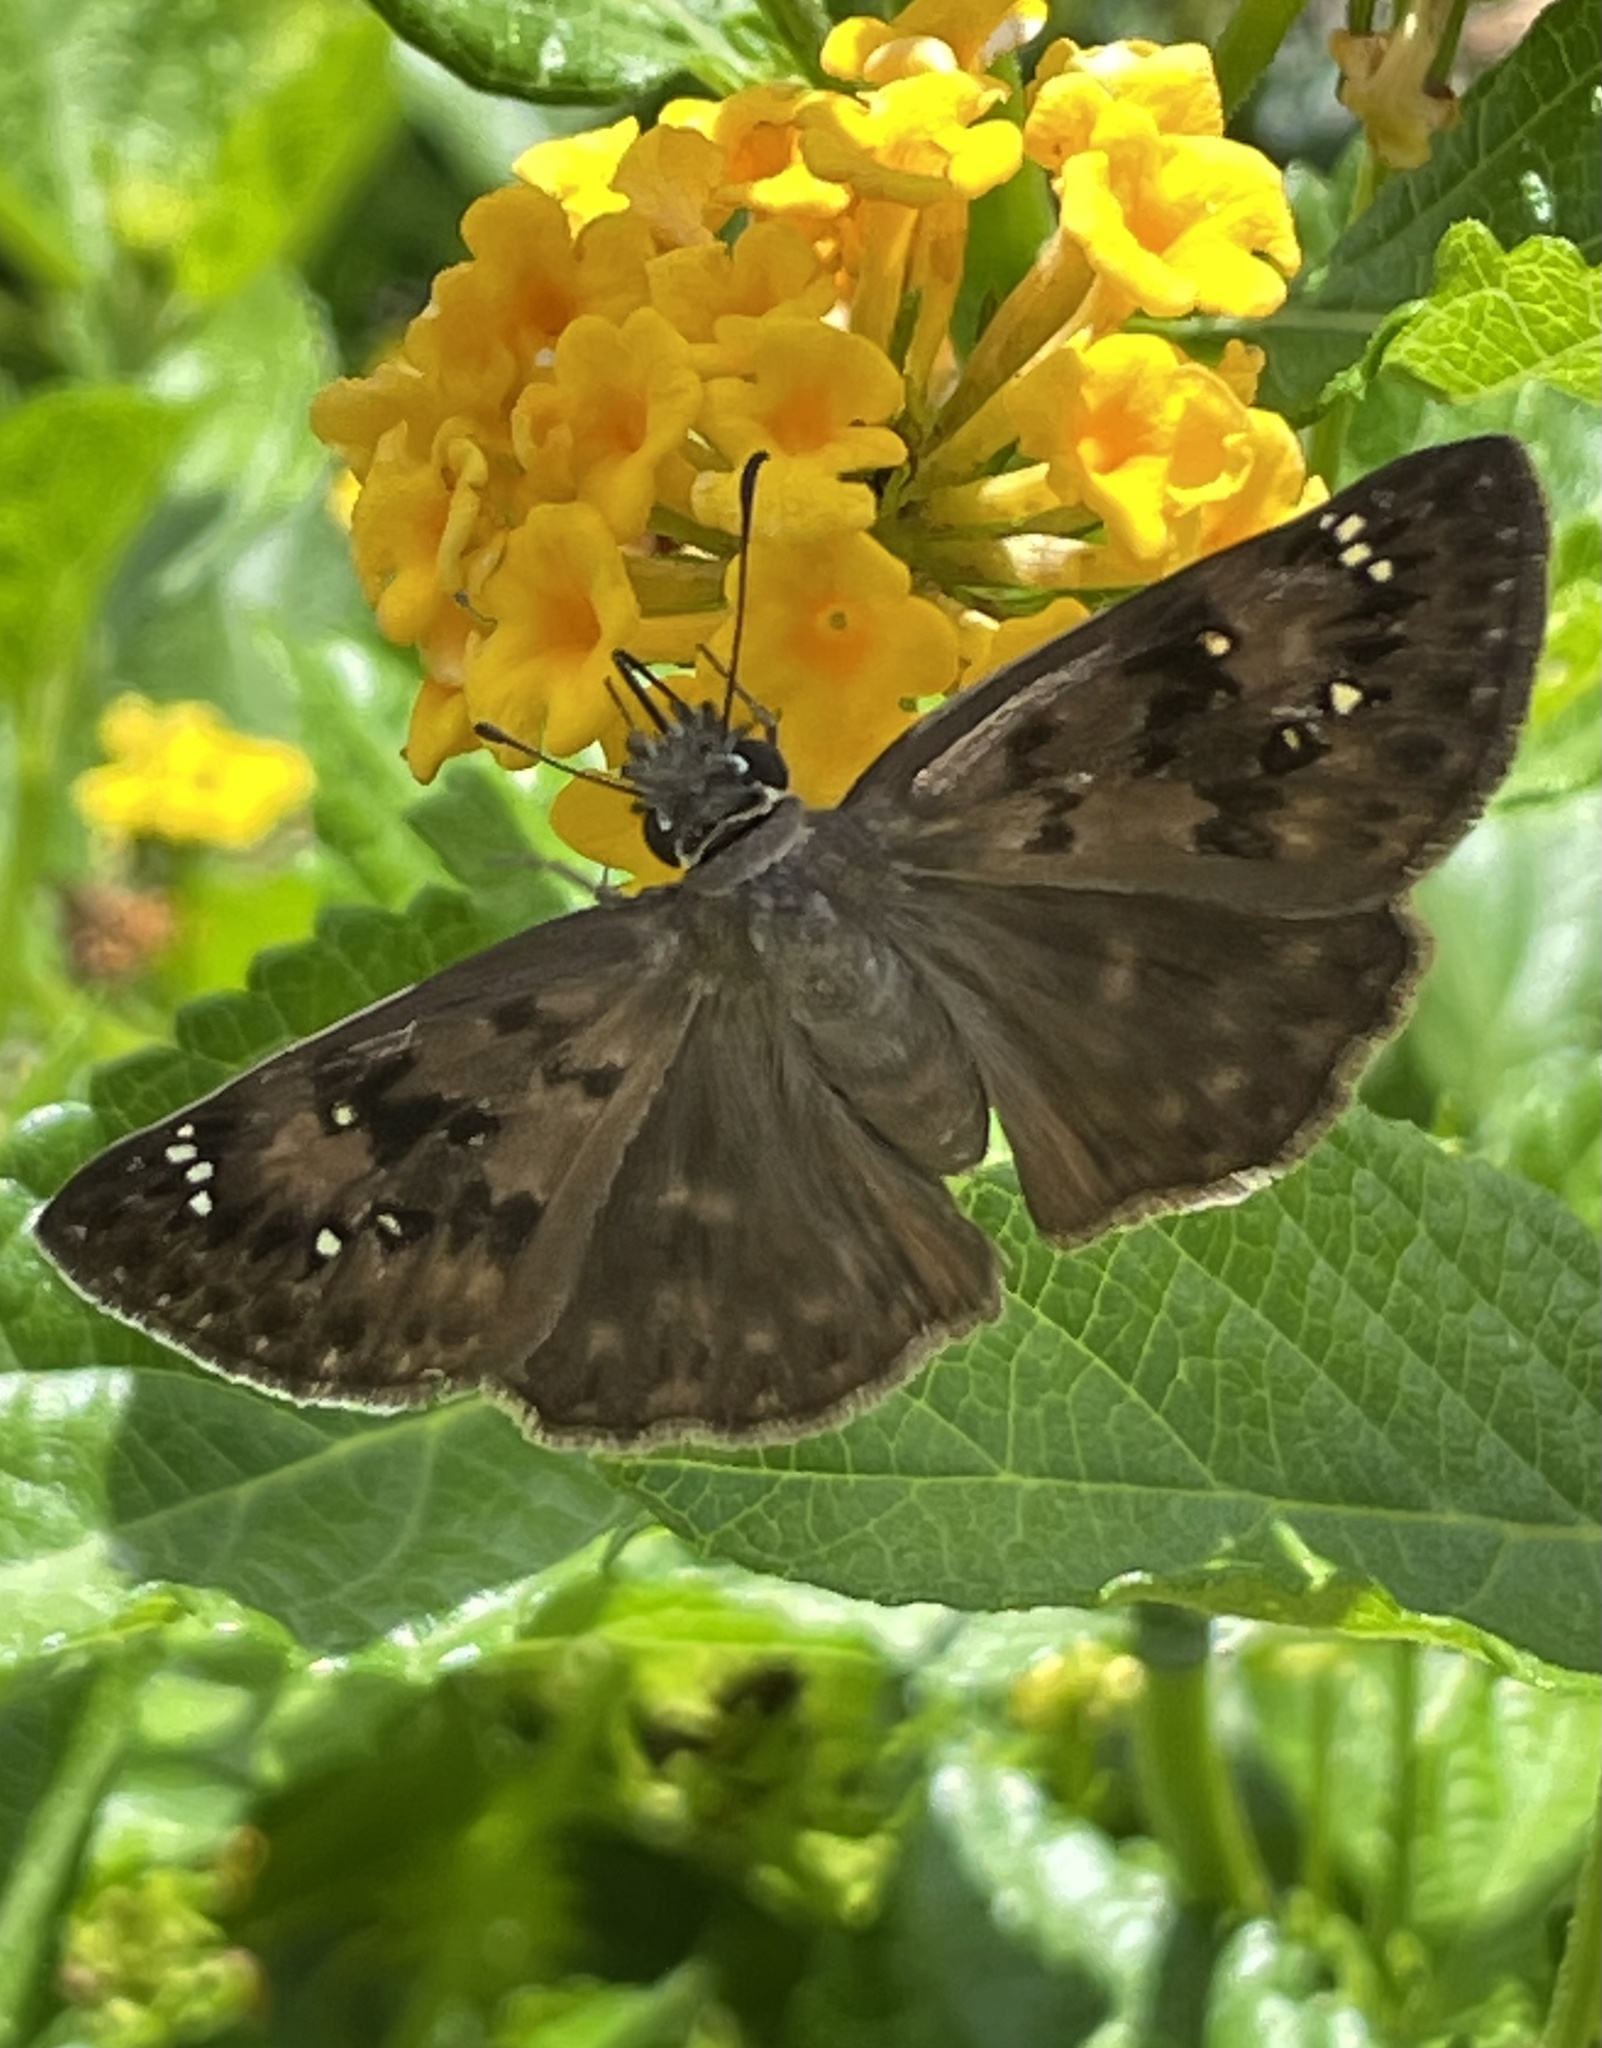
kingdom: Animalia
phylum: Arthropoda
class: Insecta
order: Lepidoptera
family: Hesperiidae
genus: Erynnis
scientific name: Erynnis horatius
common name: Horace's duskywing
